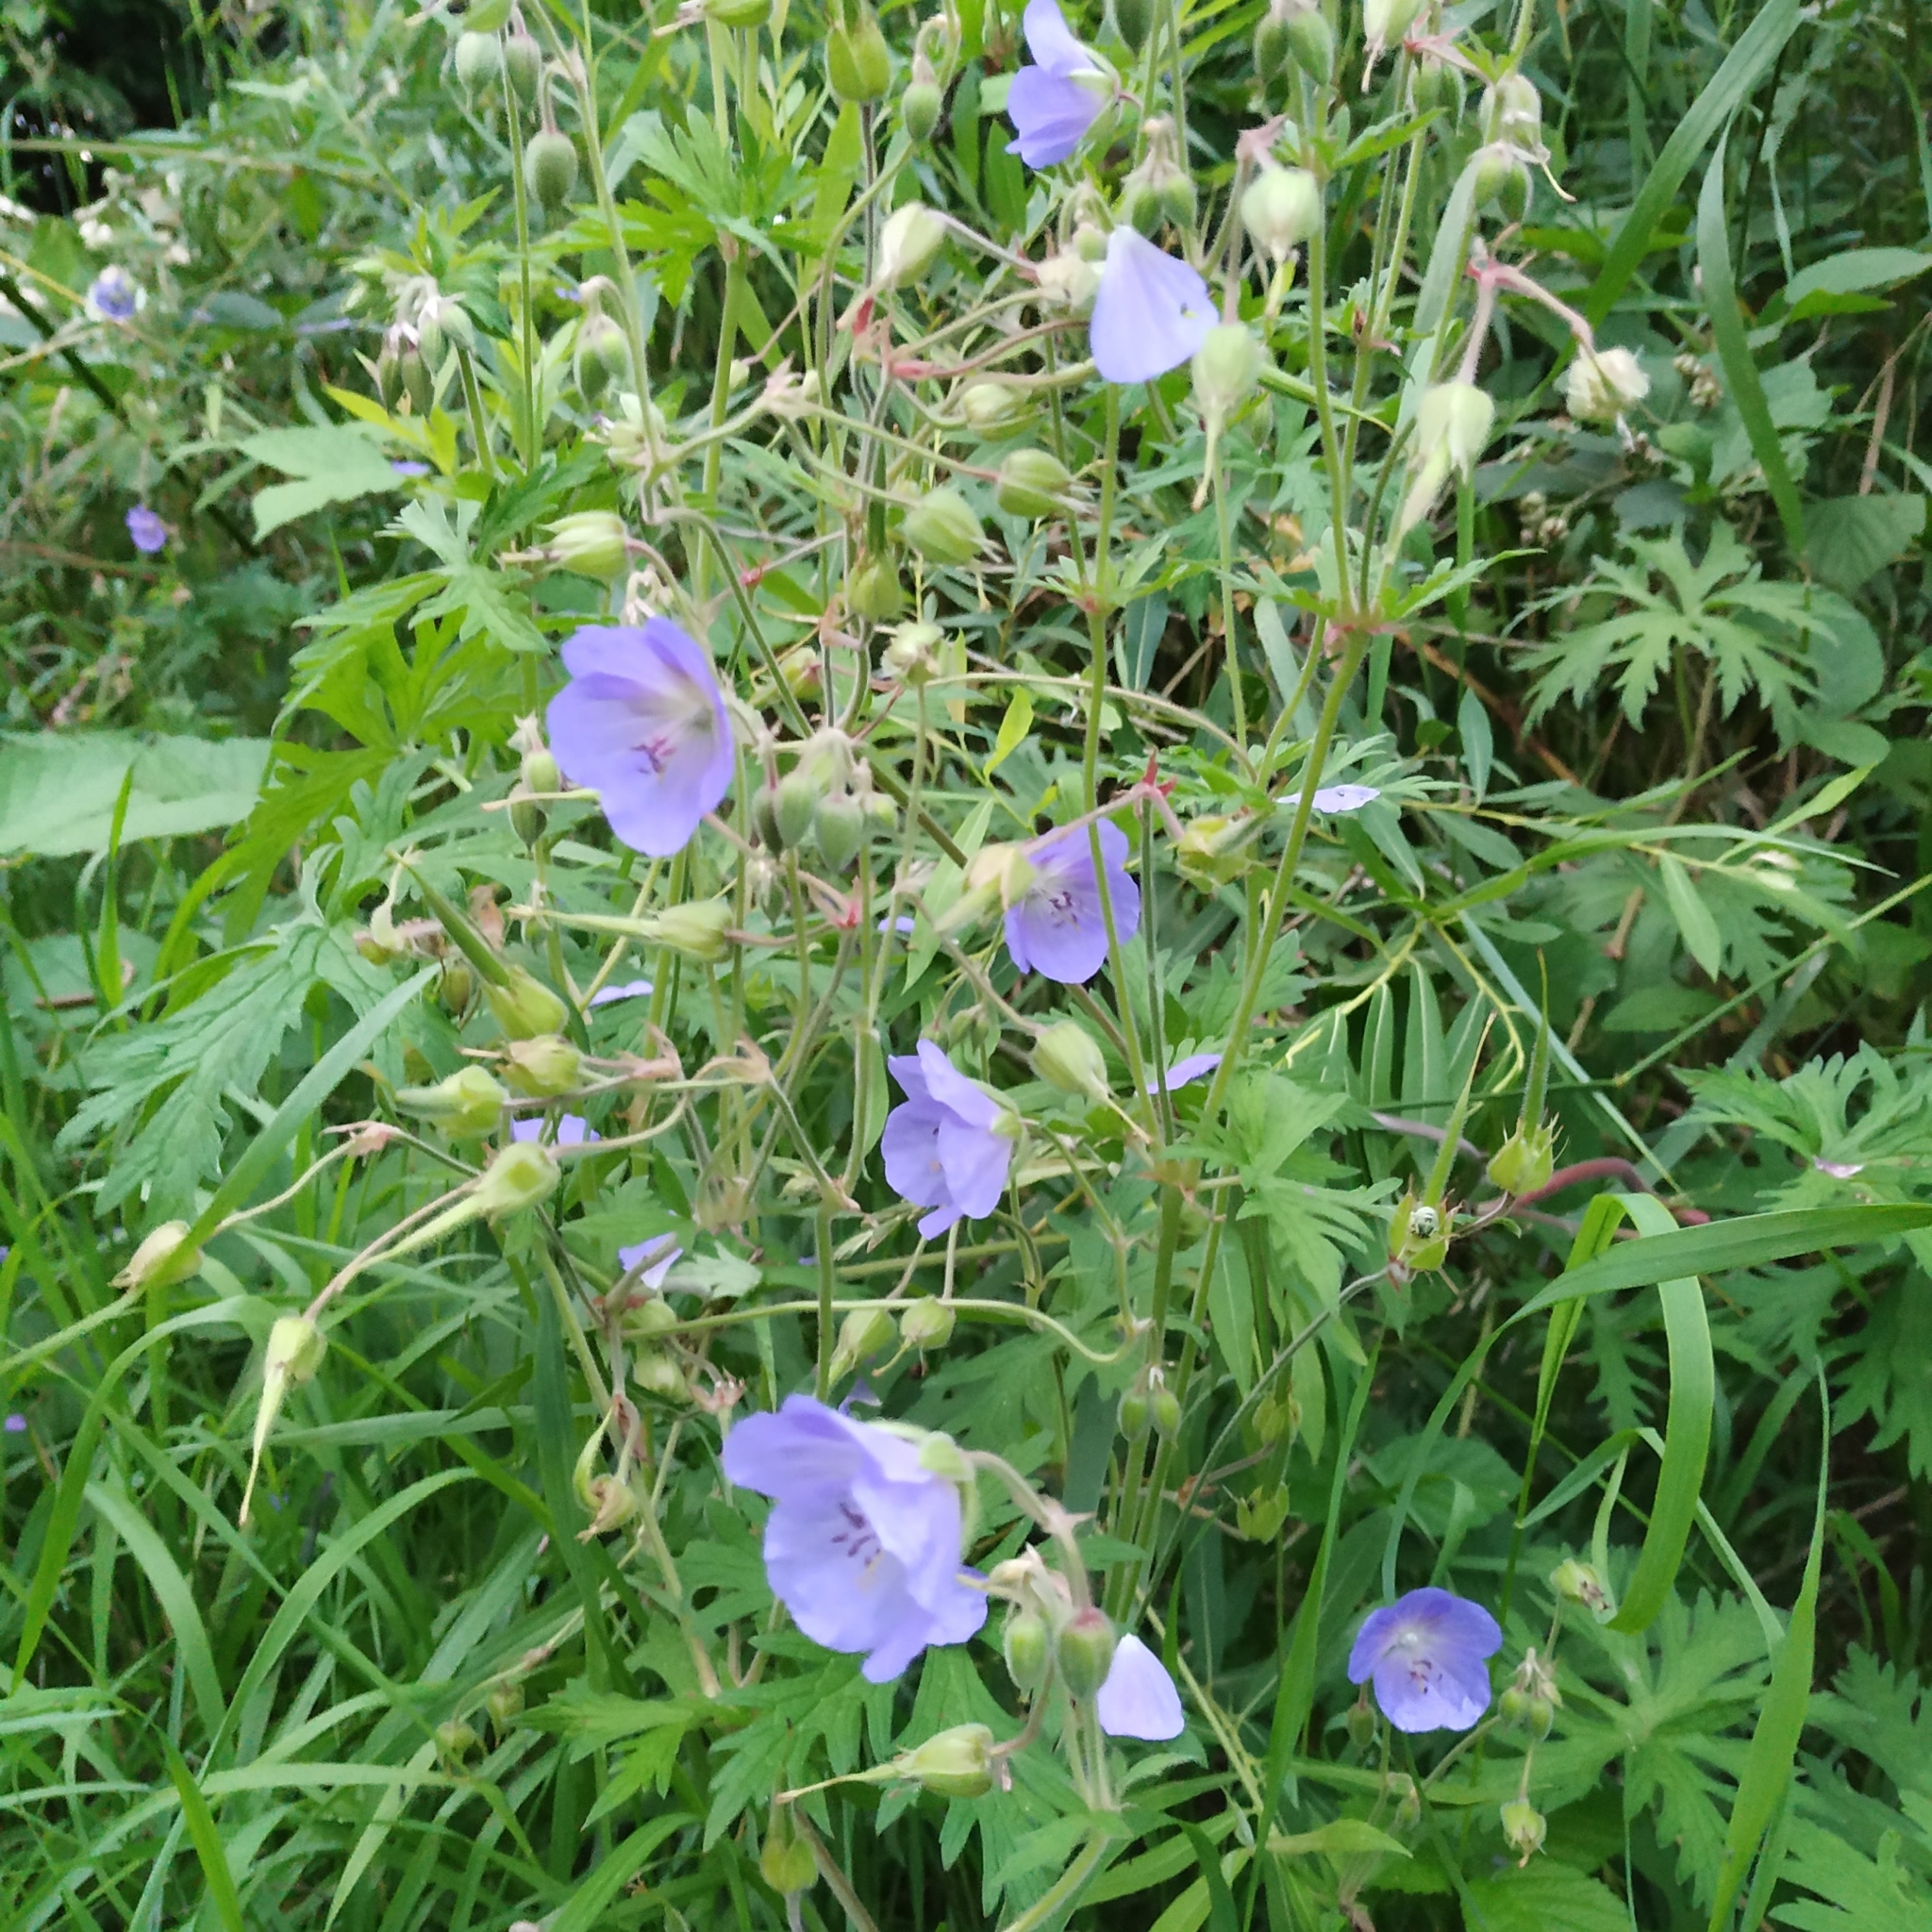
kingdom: Plantae
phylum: Tracheophyta
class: Magnoliopsida
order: Geraniales
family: Geraniaceae
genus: Geranium
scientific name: Geranium pratense
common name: Meadow crane's-bill
